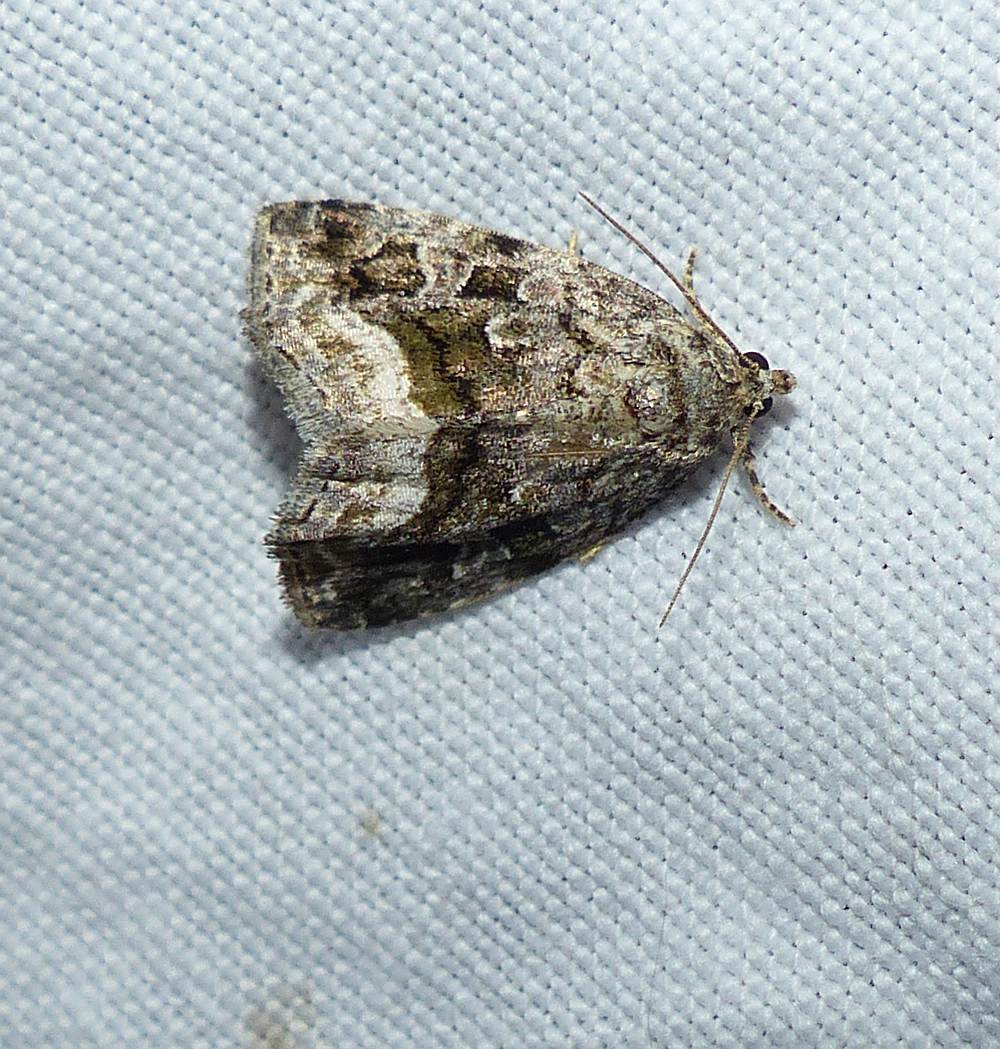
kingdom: Animalia
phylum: Arthropoda
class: Insecta
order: Lepidoptera
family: Noctuidae
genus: Protodeltote
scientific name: Protodeltote muscosula
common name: Large mossy glyph
